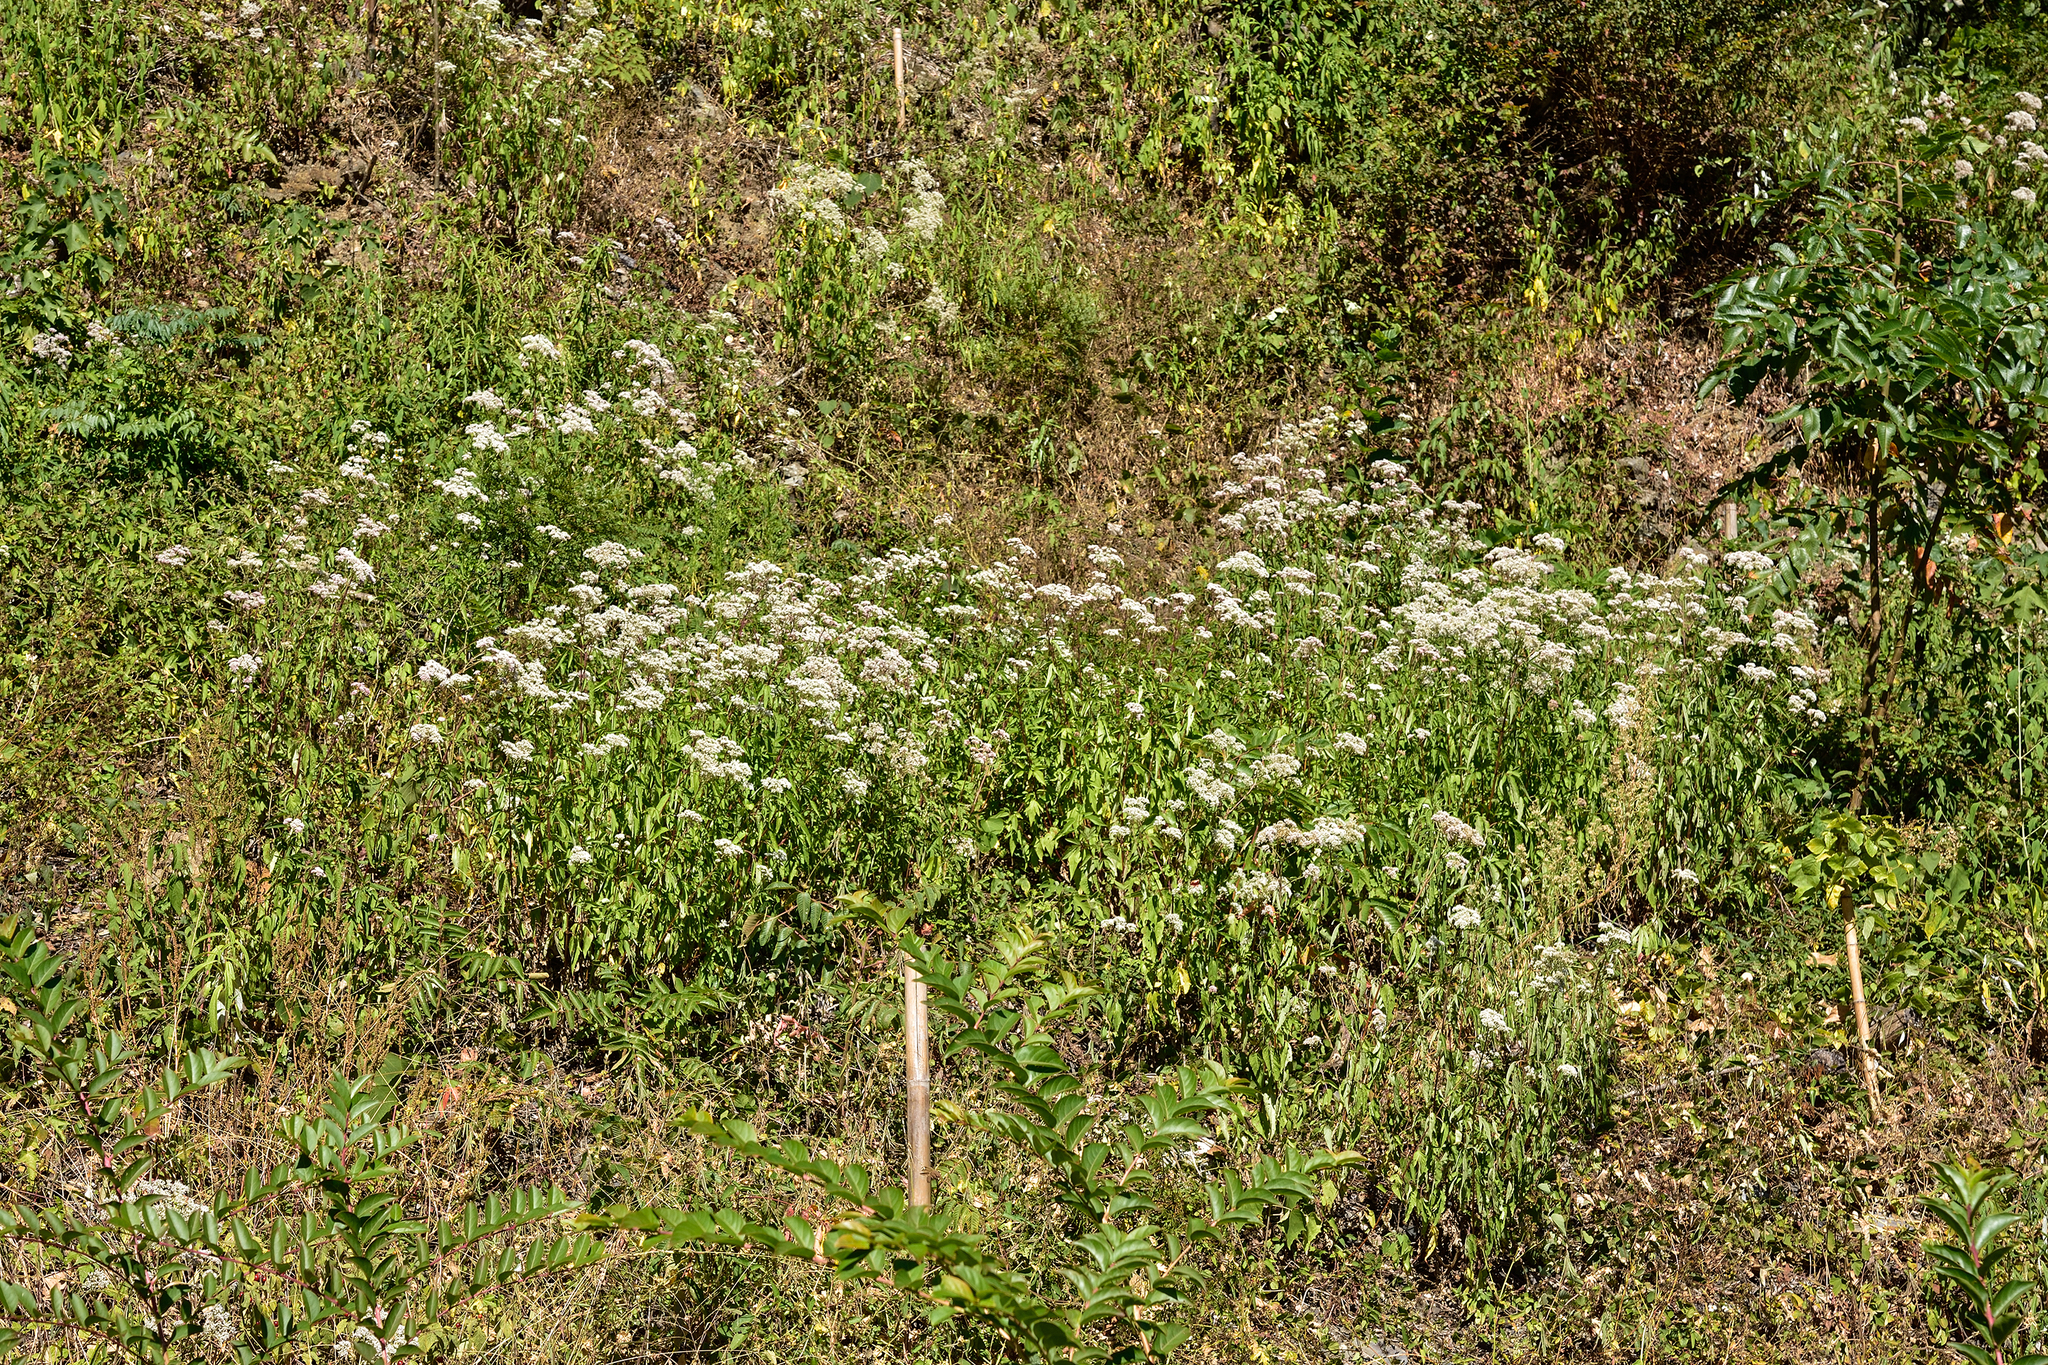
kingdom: Plantae
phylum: Tracheophyta
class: Magnoliopsida
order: Asterales
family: Asteraceae
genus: Eupatorium
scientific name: Eupatorium formosanum
